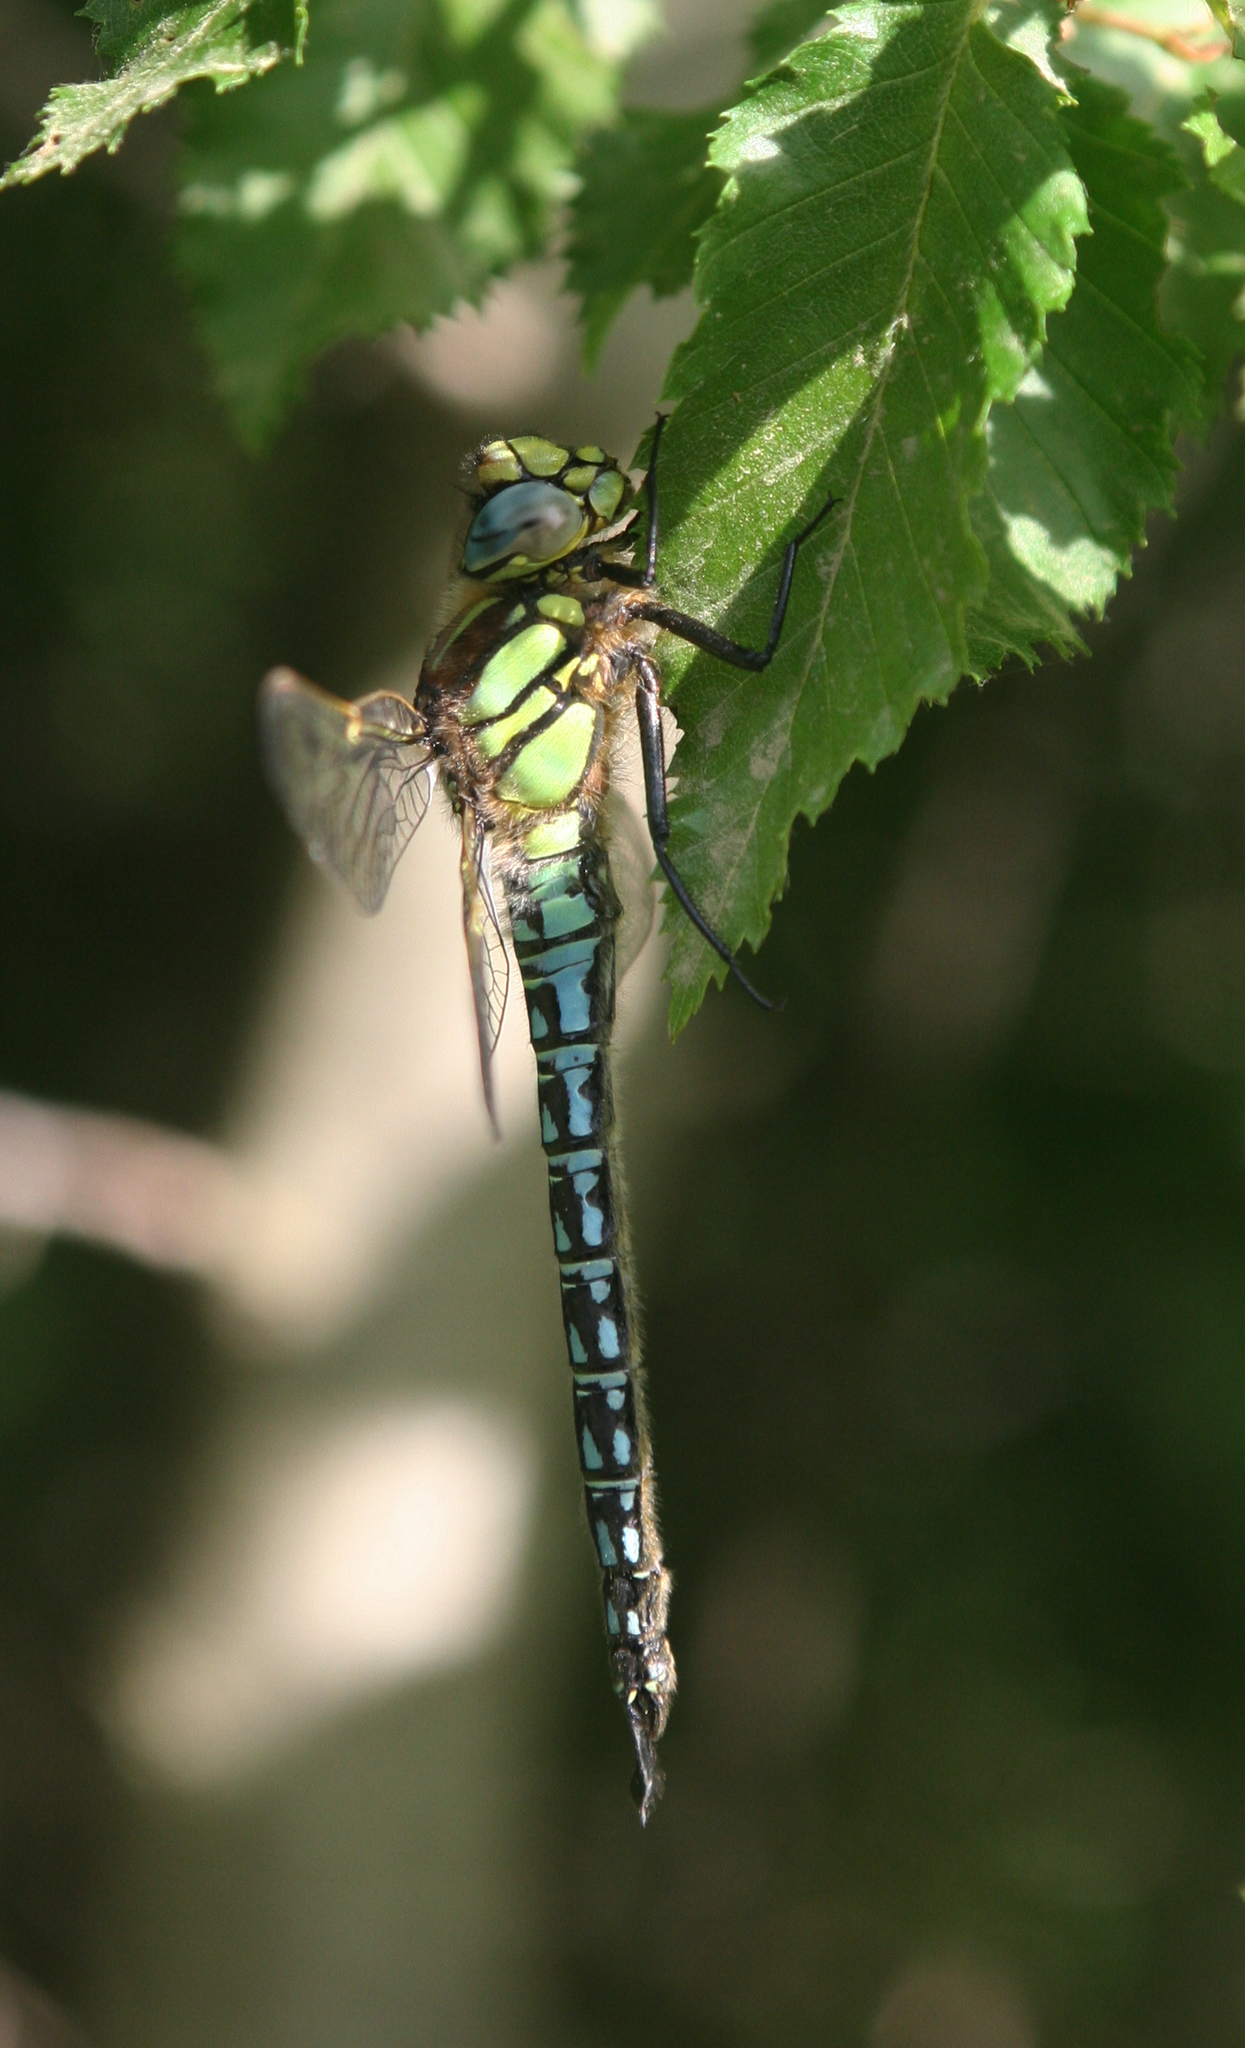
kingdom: Animalia
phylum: Arthropoda
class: Insecta
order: Odonata
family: Aeshnidae
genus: Brachytron
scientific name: Brachytron pratense
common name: Hairy hawker
